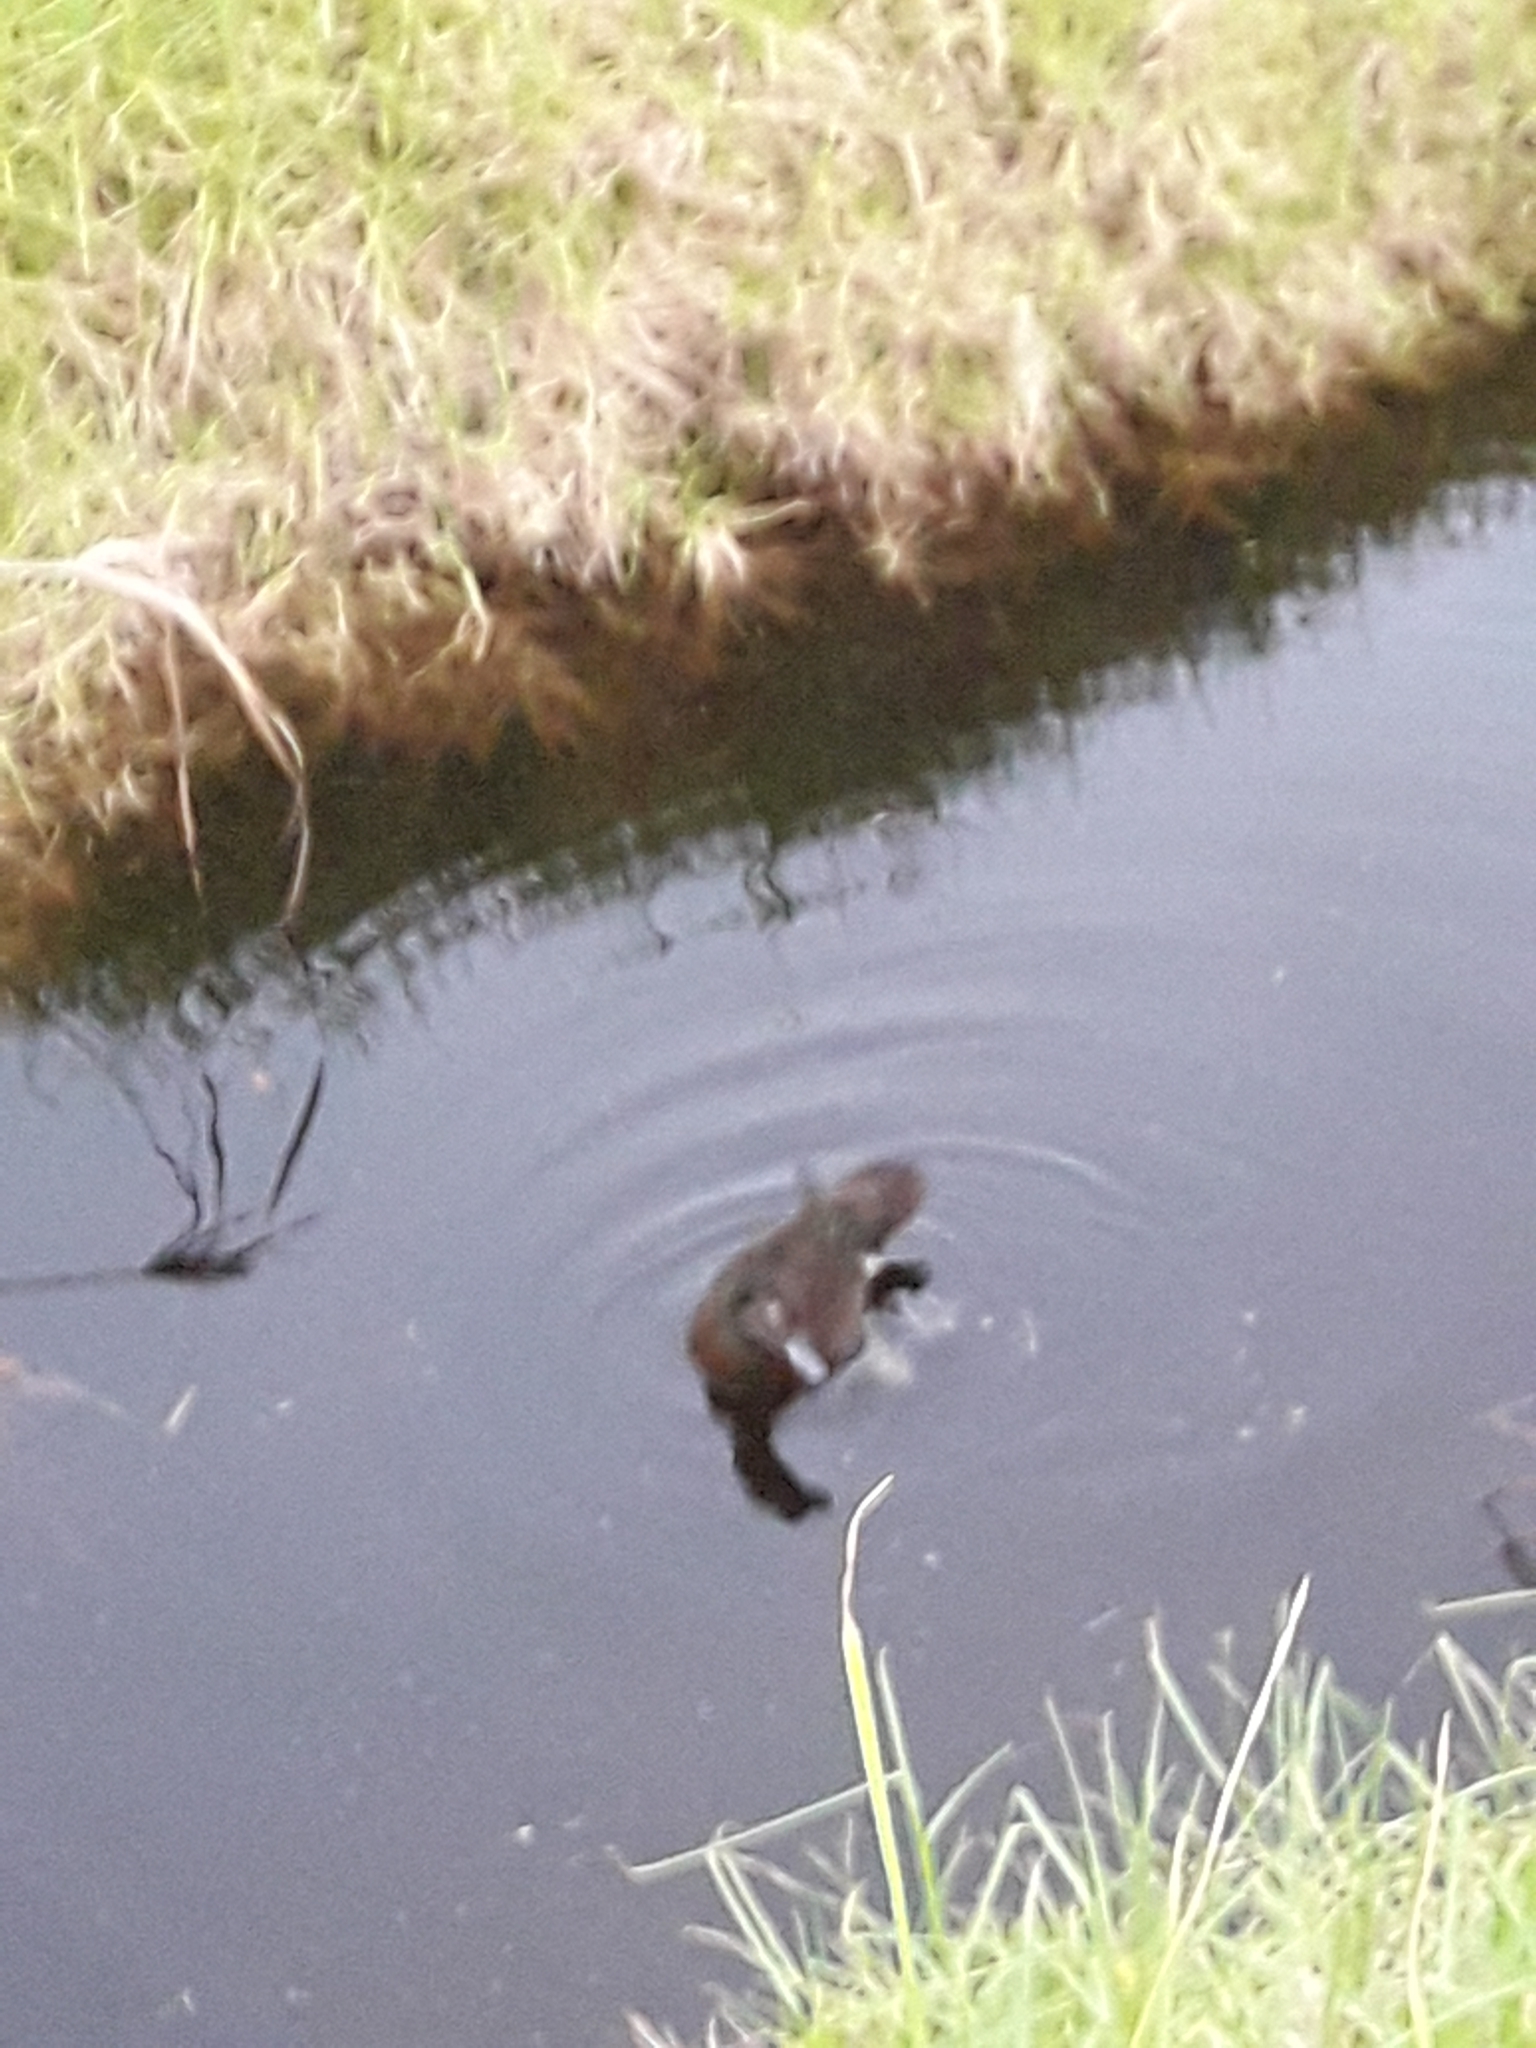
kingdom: Animalia
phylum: Chordata
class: Aves
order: Anseriformes
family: Anatidae
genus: Anas
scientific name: Anas chlorotis
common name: Brown teal
